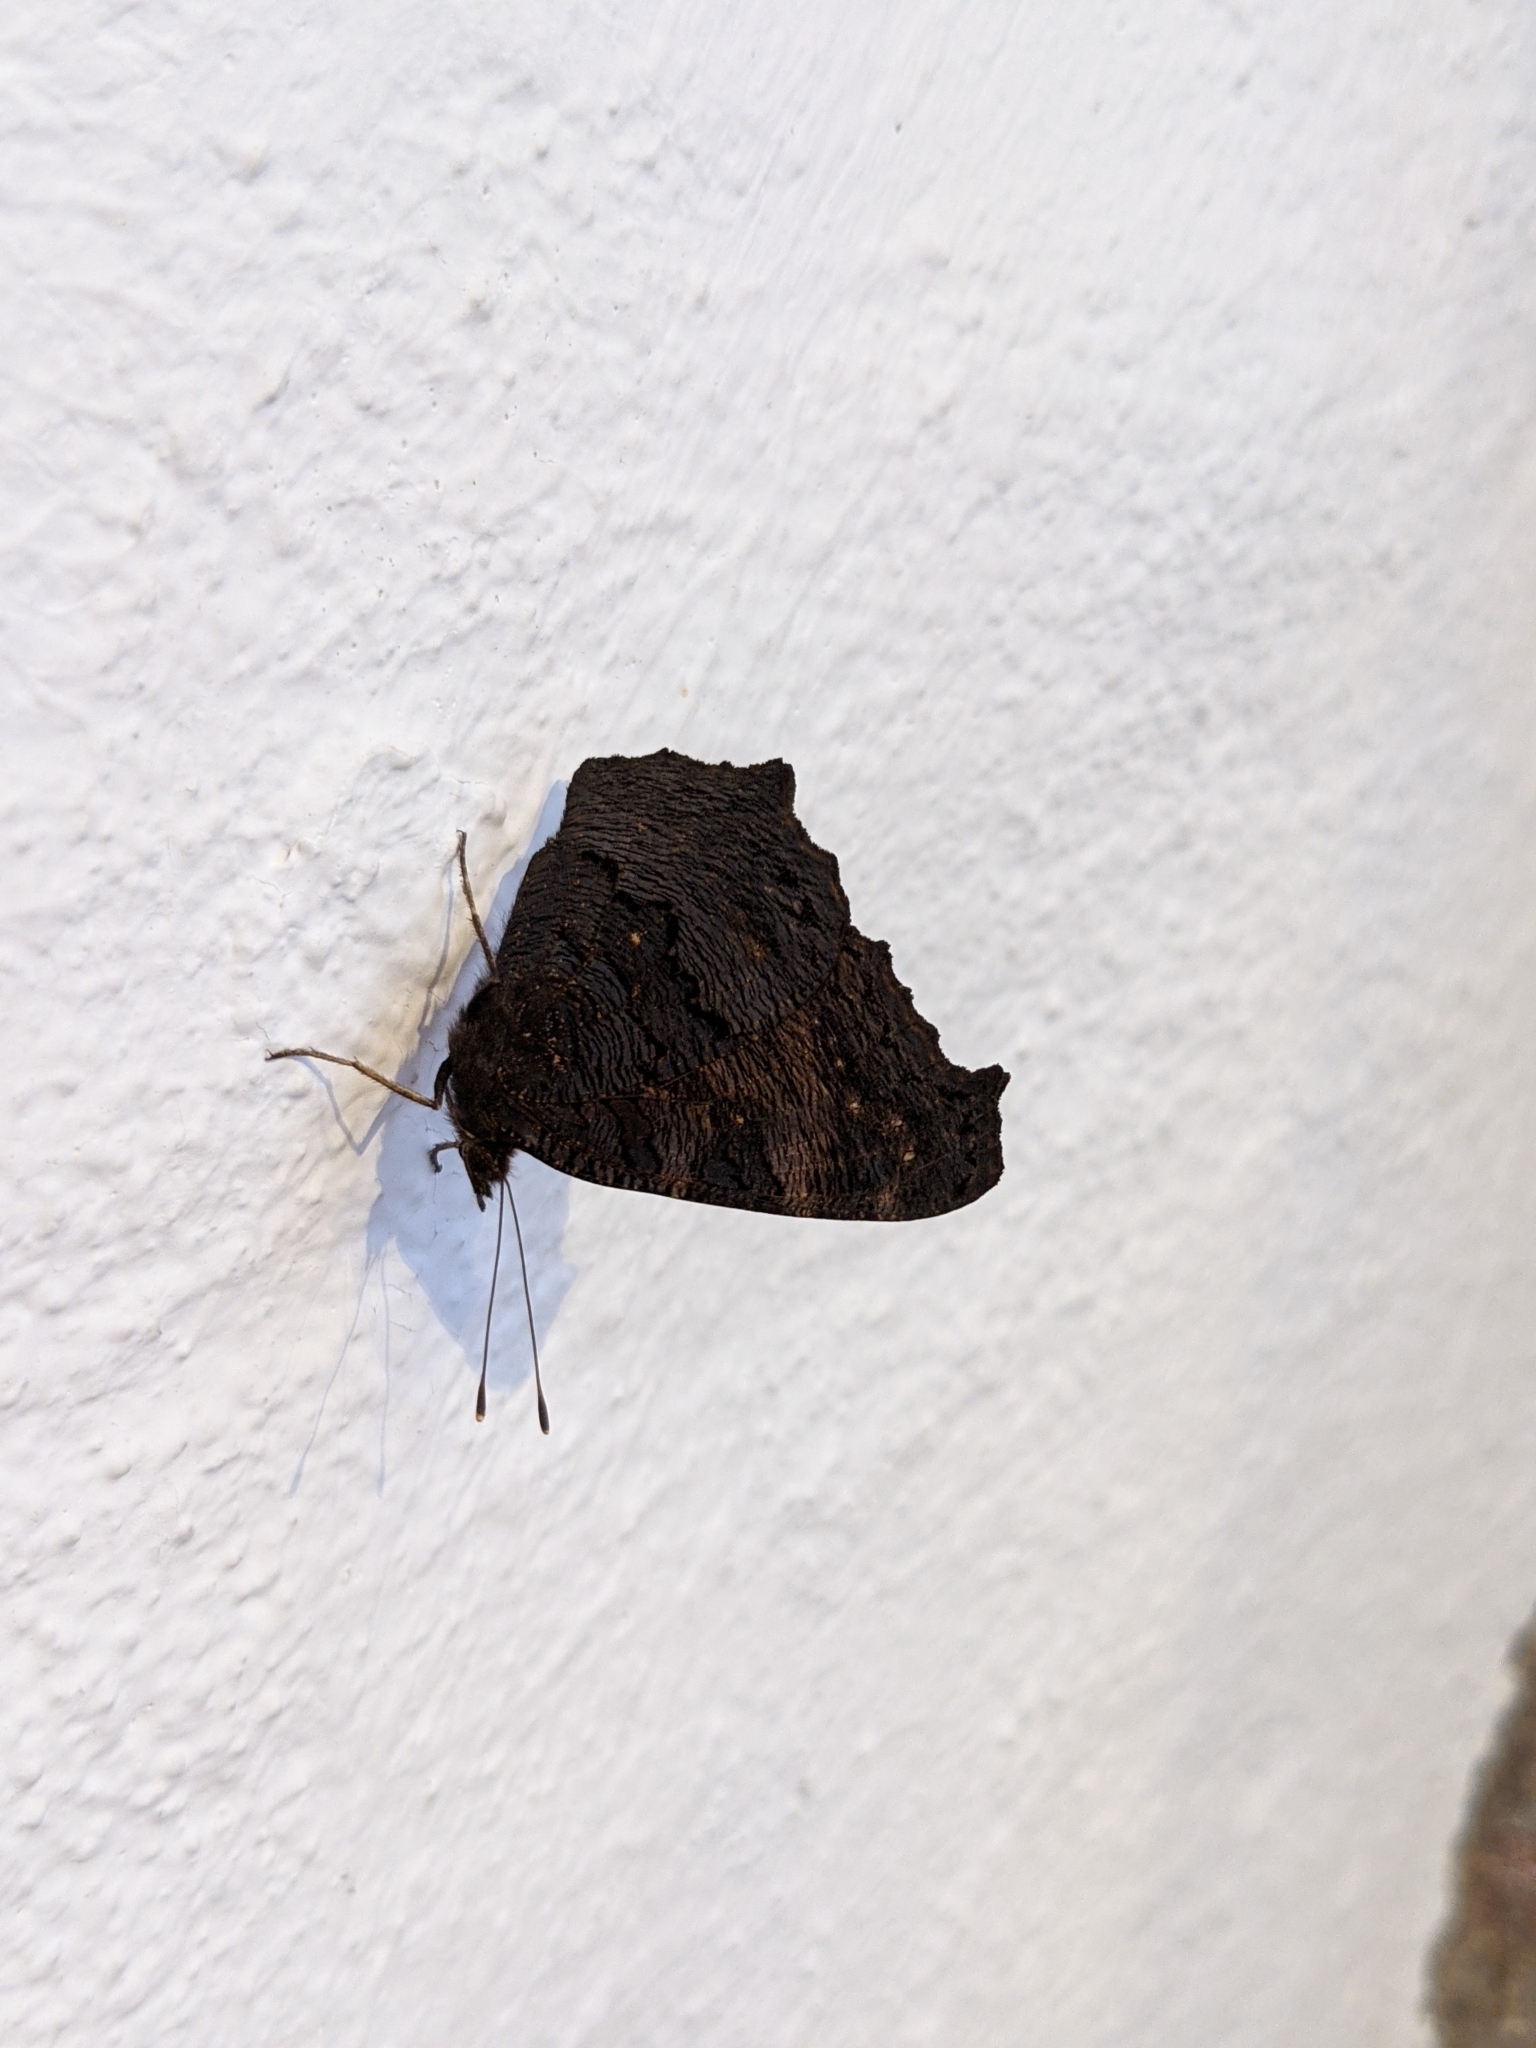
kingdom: Animalia
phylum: Arthropoda
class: Insecta
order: Lepidoptera
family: Nymphalidae
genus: Aglais
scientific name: Aglais io
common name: Peacock
